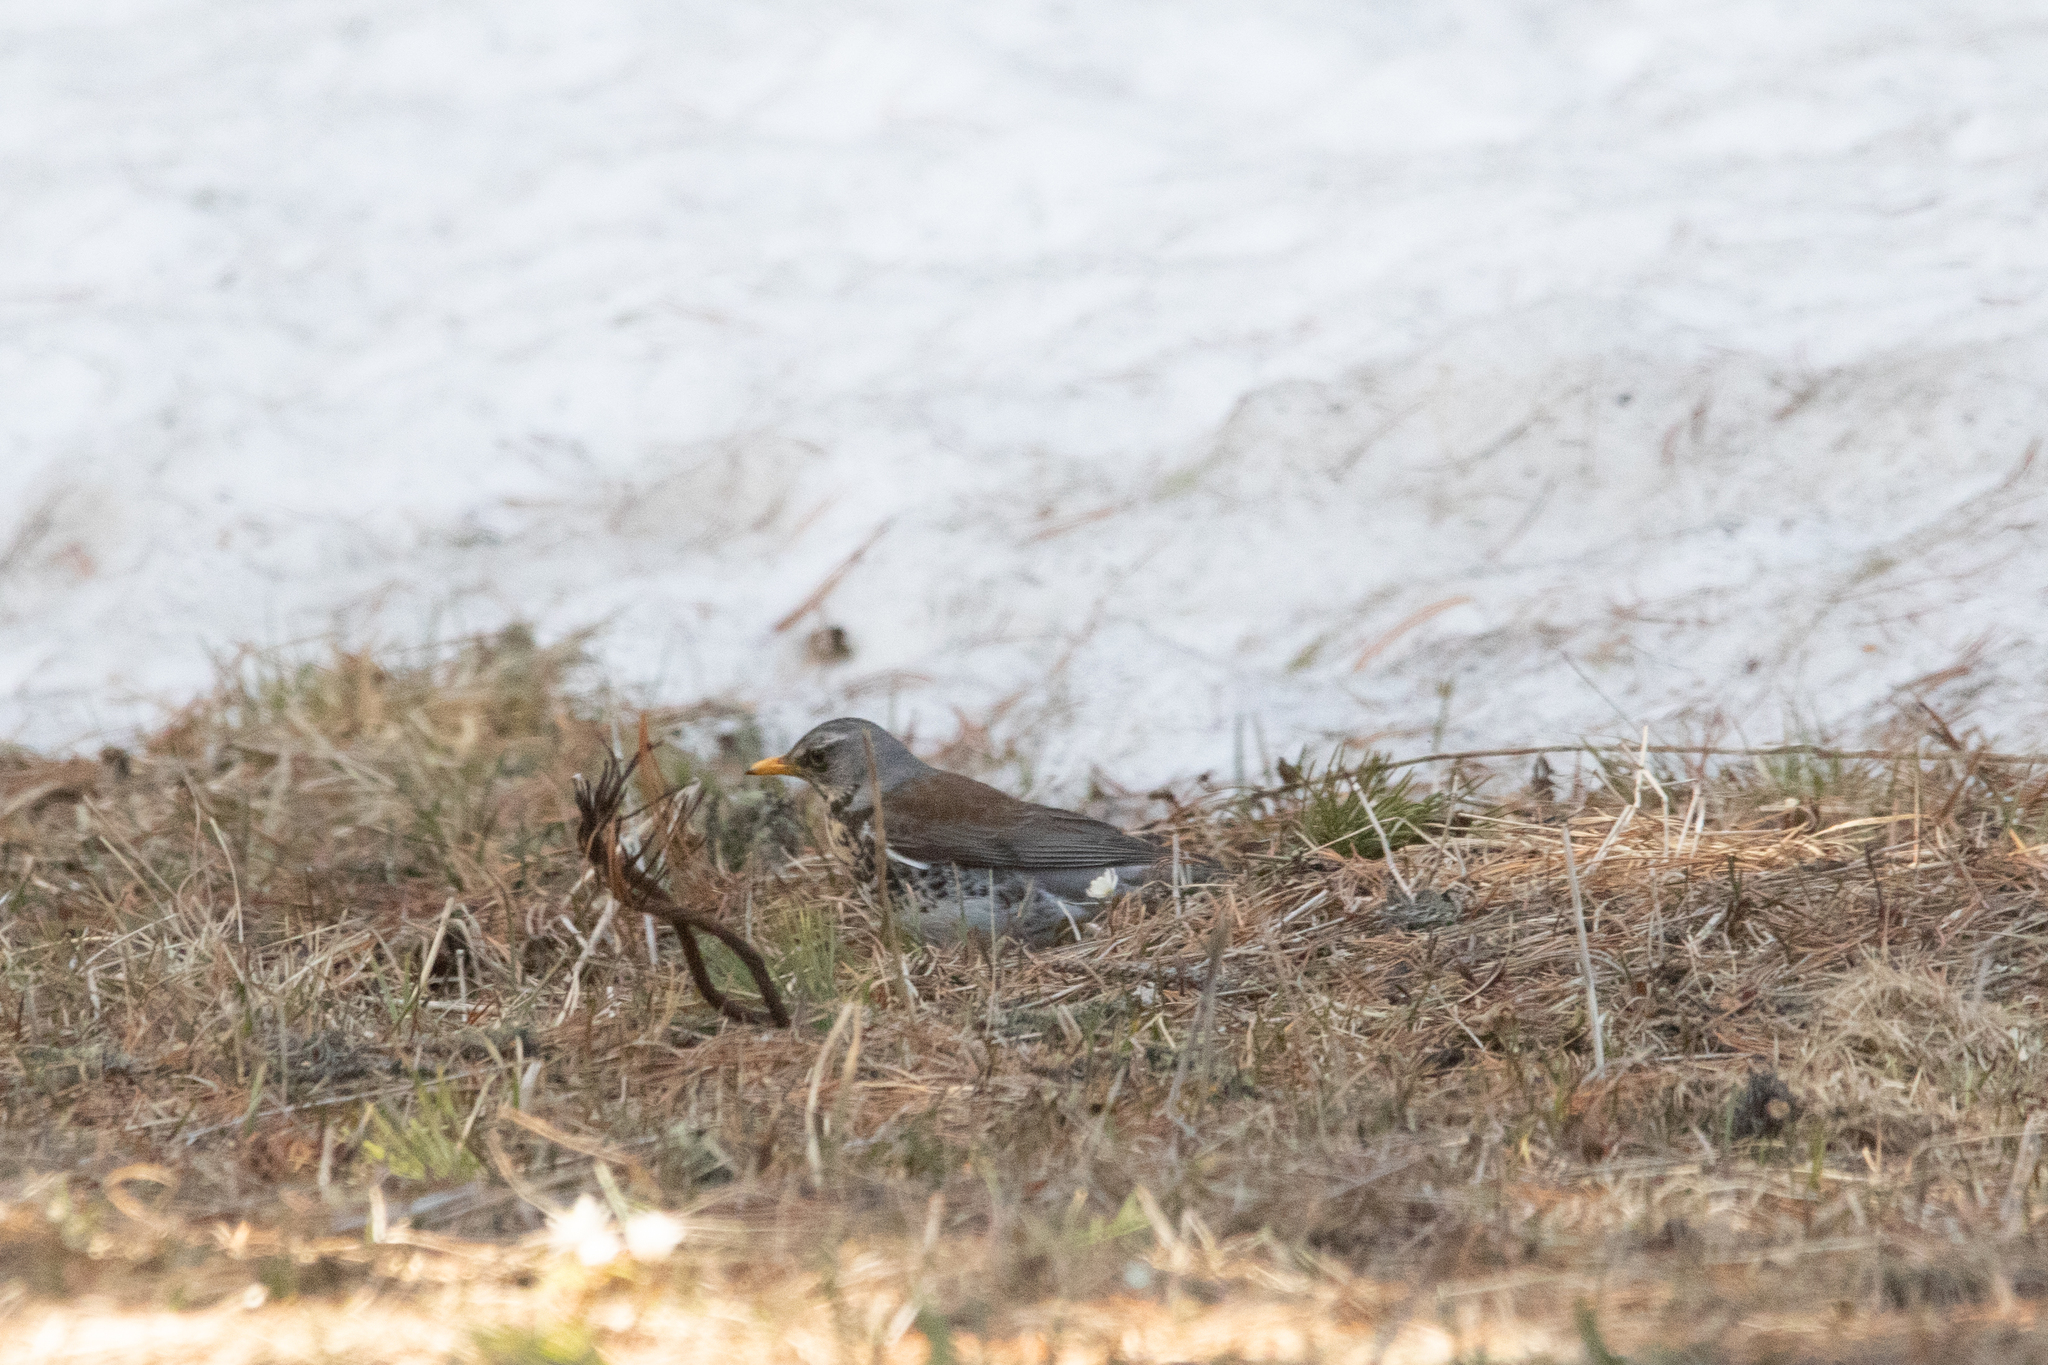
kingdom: Animalia
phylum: Chordata
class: Aves
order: Passeriformes
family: Turdidae
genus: Turdus
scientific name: Turdus pilaris
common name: Fieldfare
